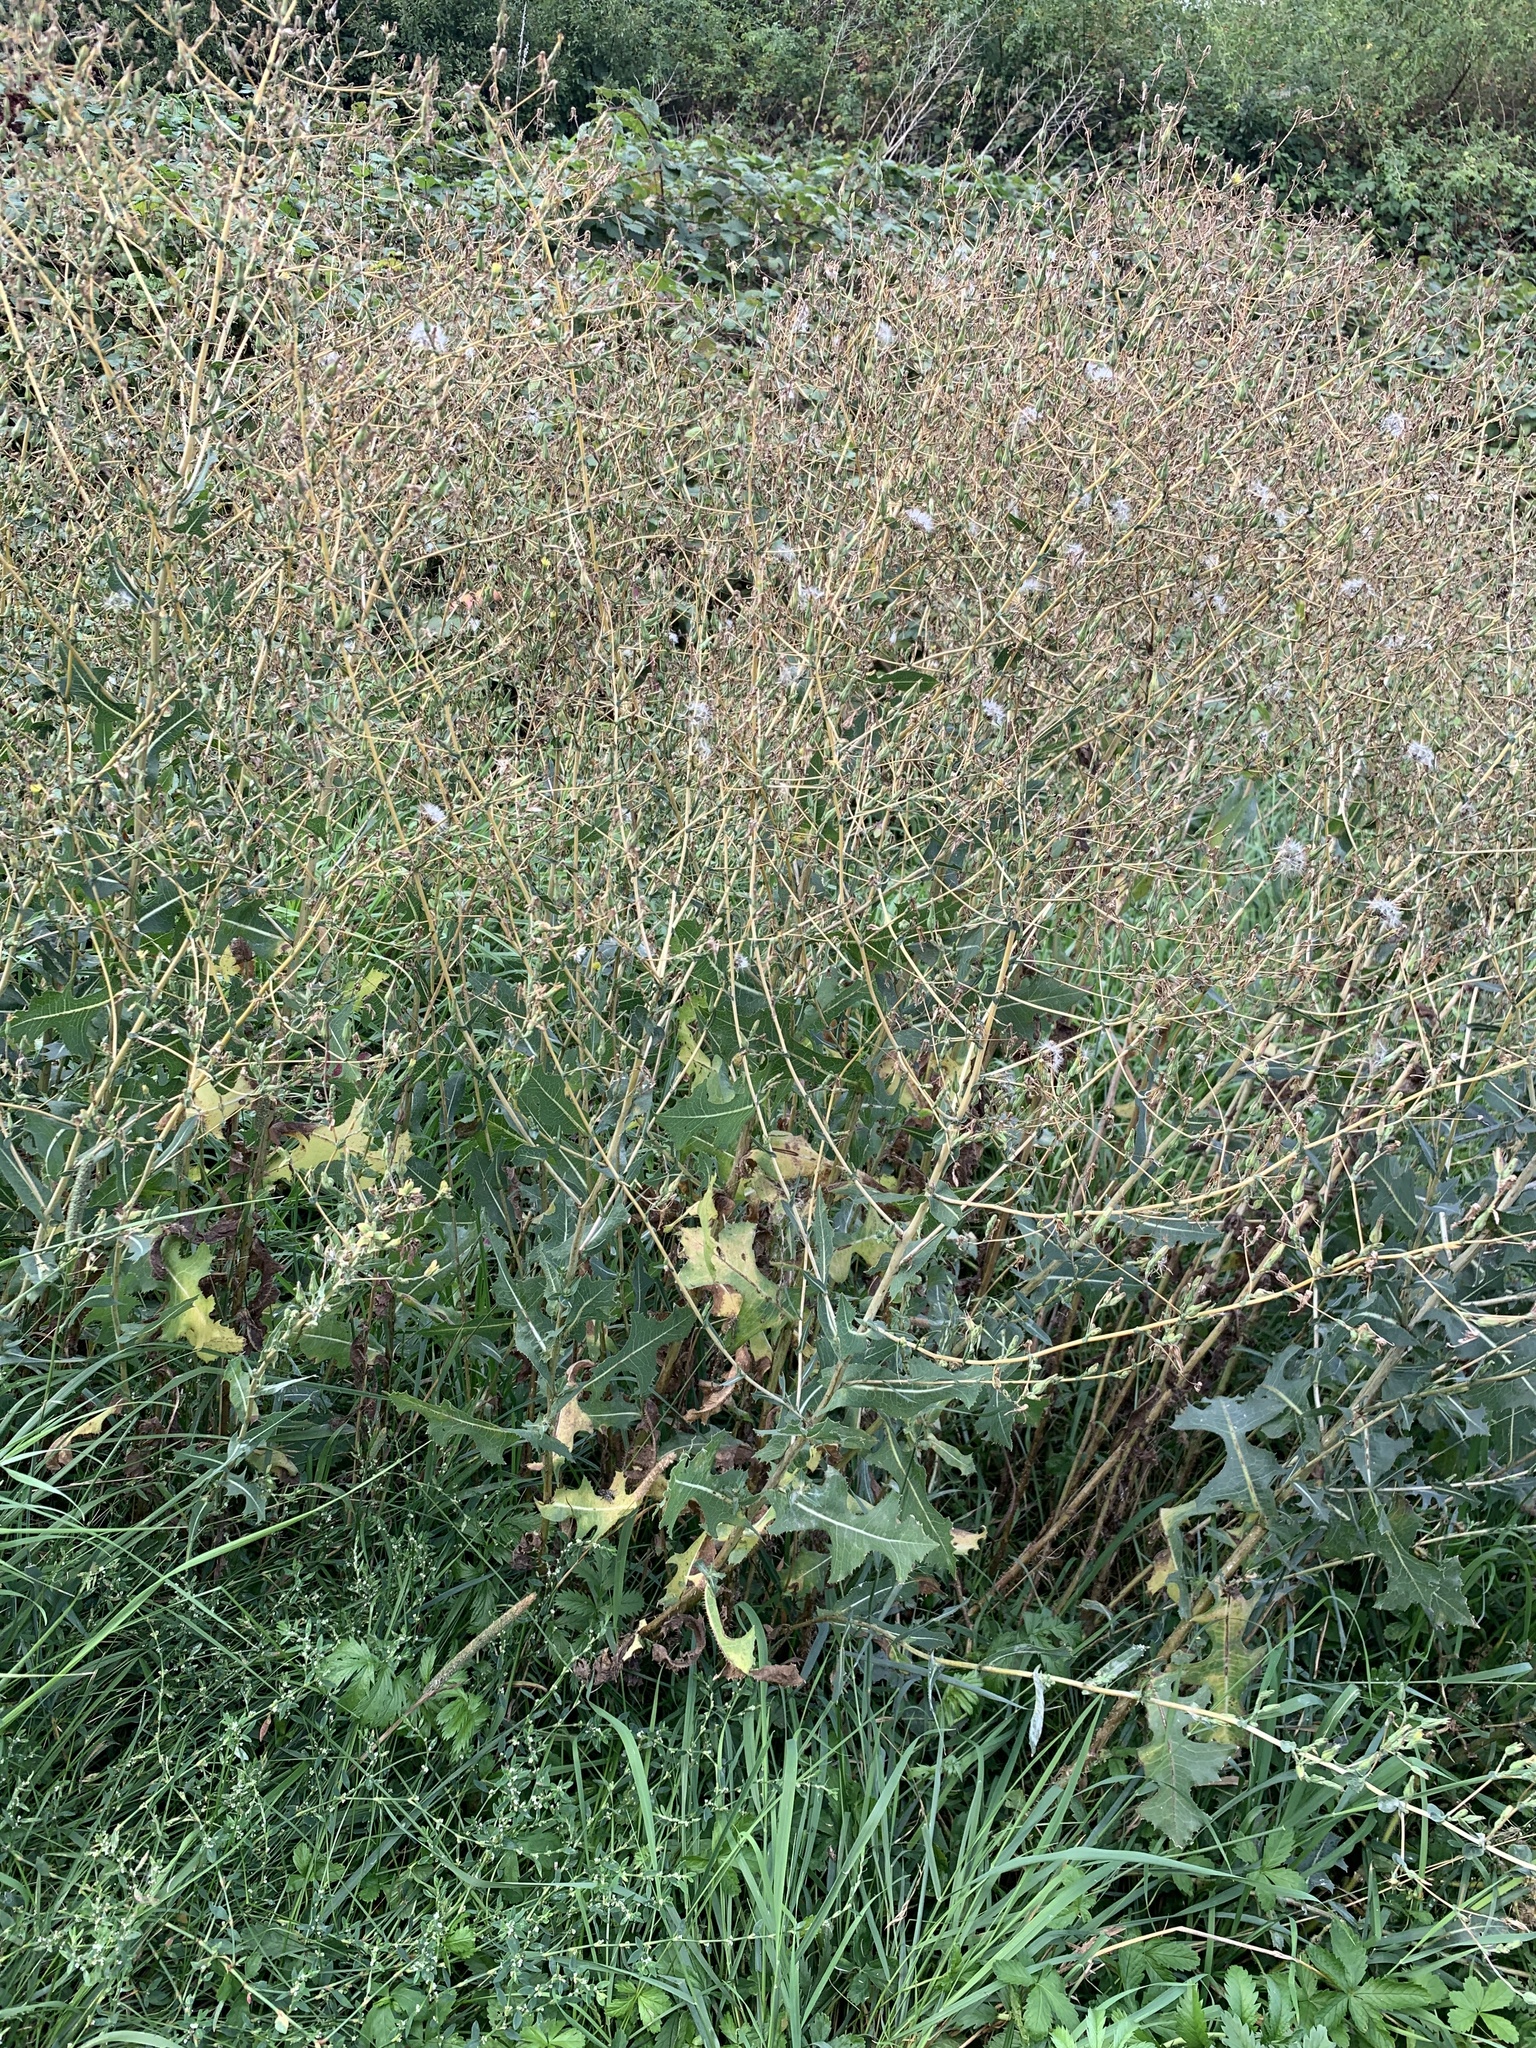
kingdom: Plantae
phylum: Tracheophyta
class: Magnoliopsida
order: Asterales
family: Asteraceae
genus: Lactuca
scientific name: Lactuca serriola
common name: Prickly lettuce
